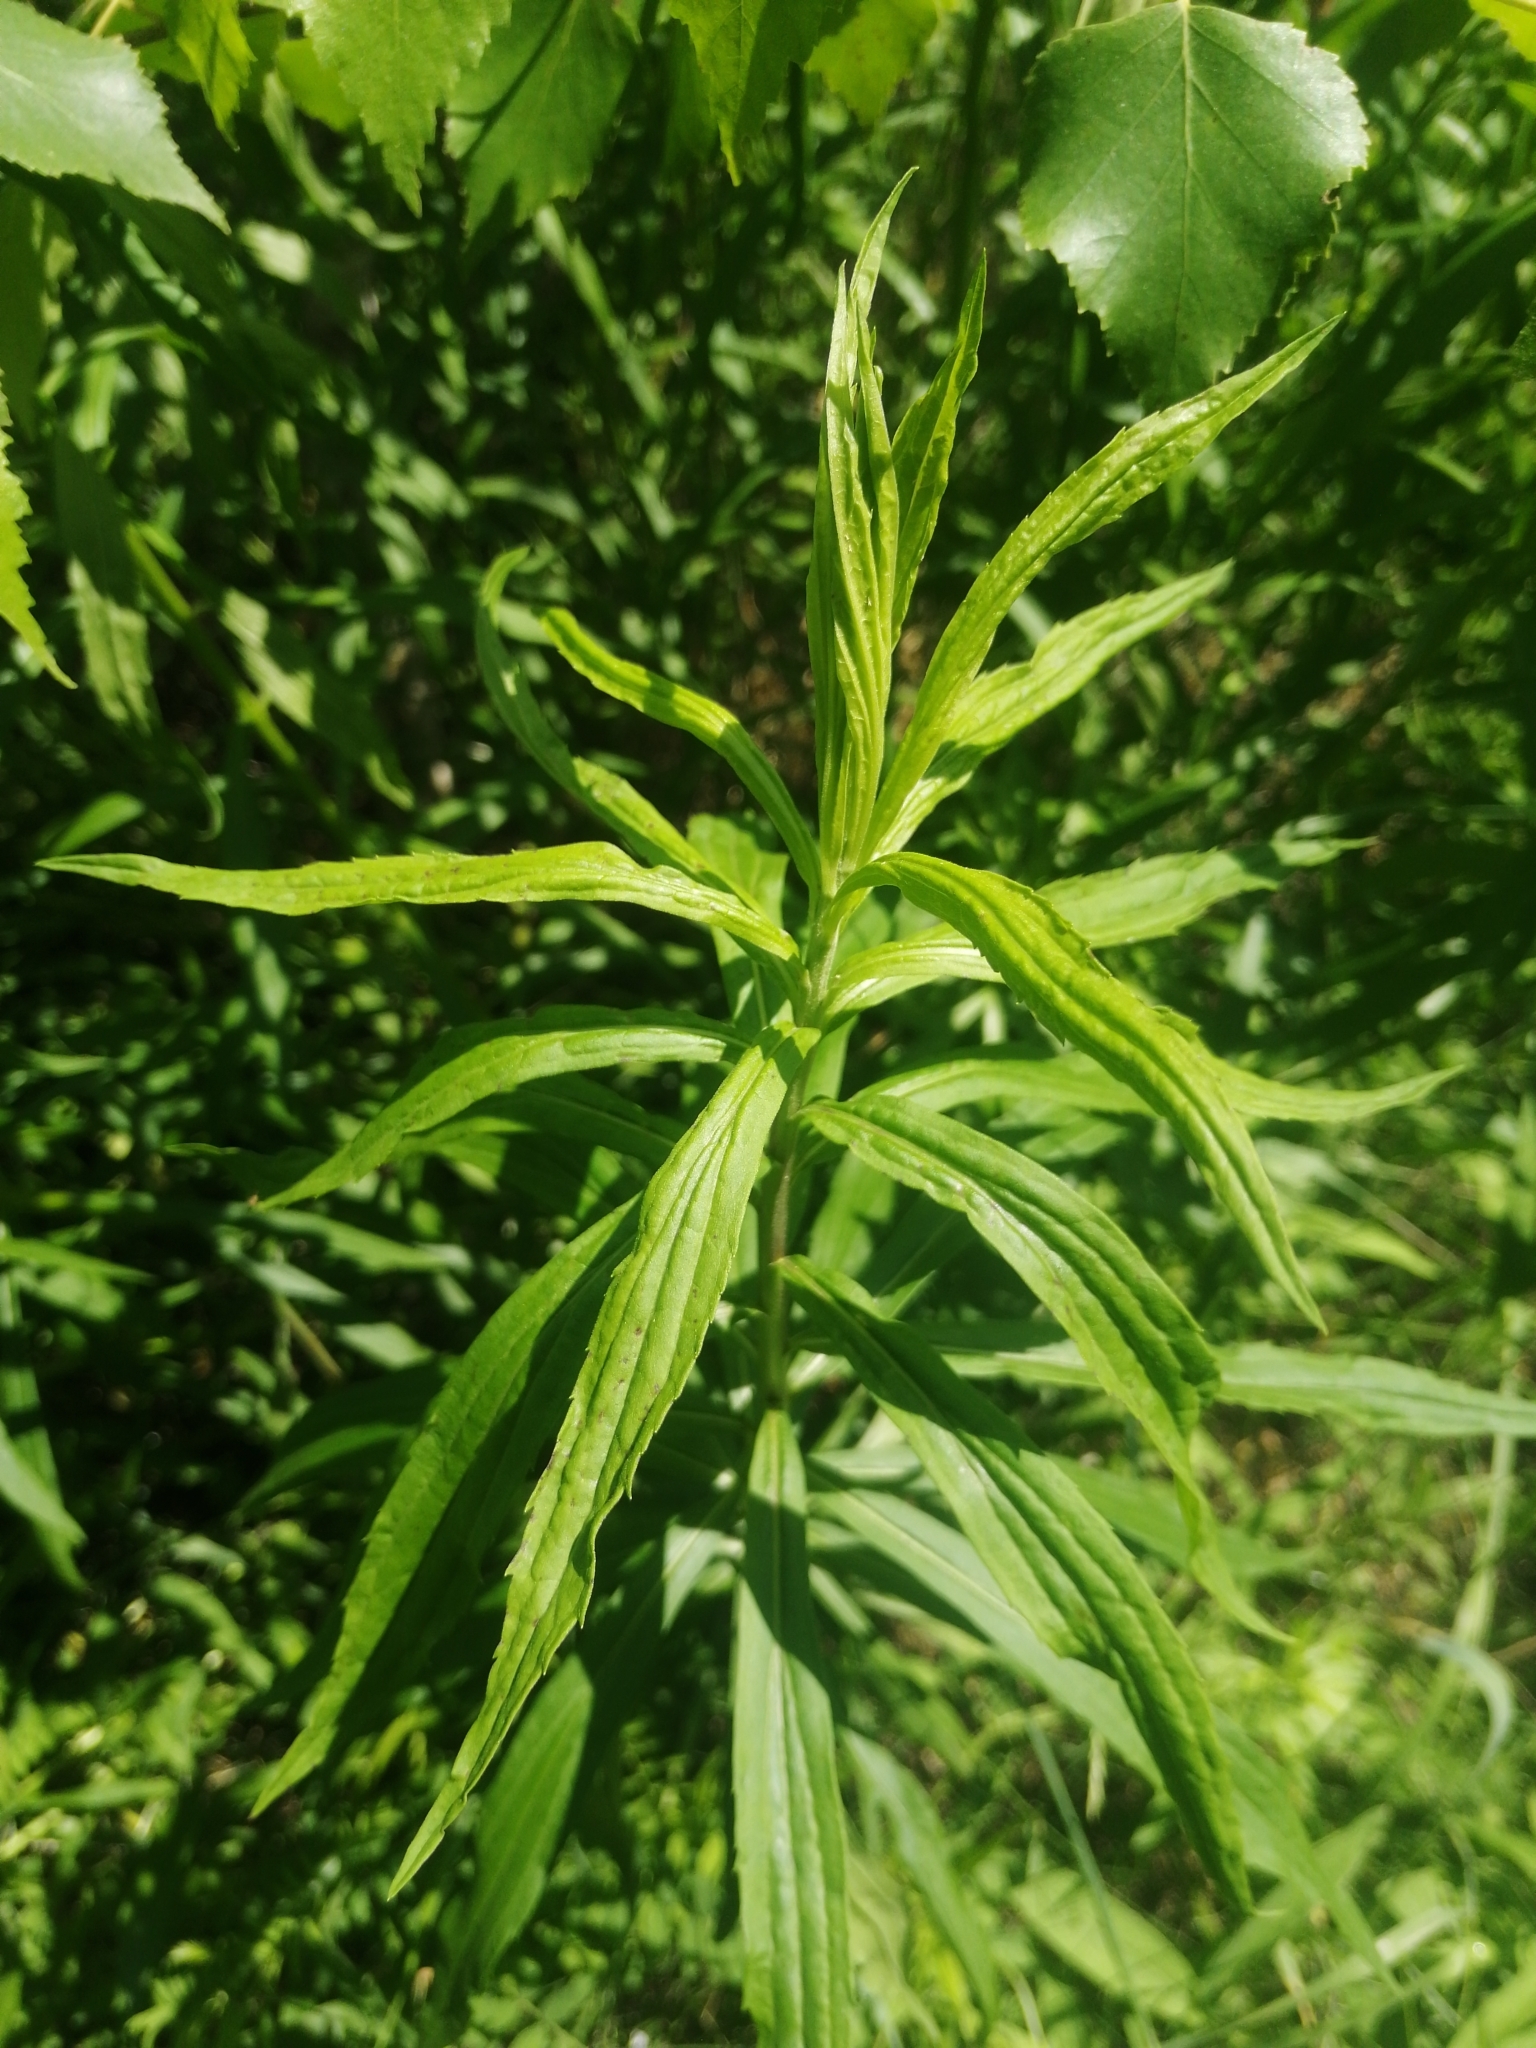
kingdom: Plantae
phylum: Tracheophyta
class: Magnoliopsida
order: Asterales
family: Asteraceae
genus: Solidago
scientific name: Solidago canadensis
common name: Canada goldenrod
